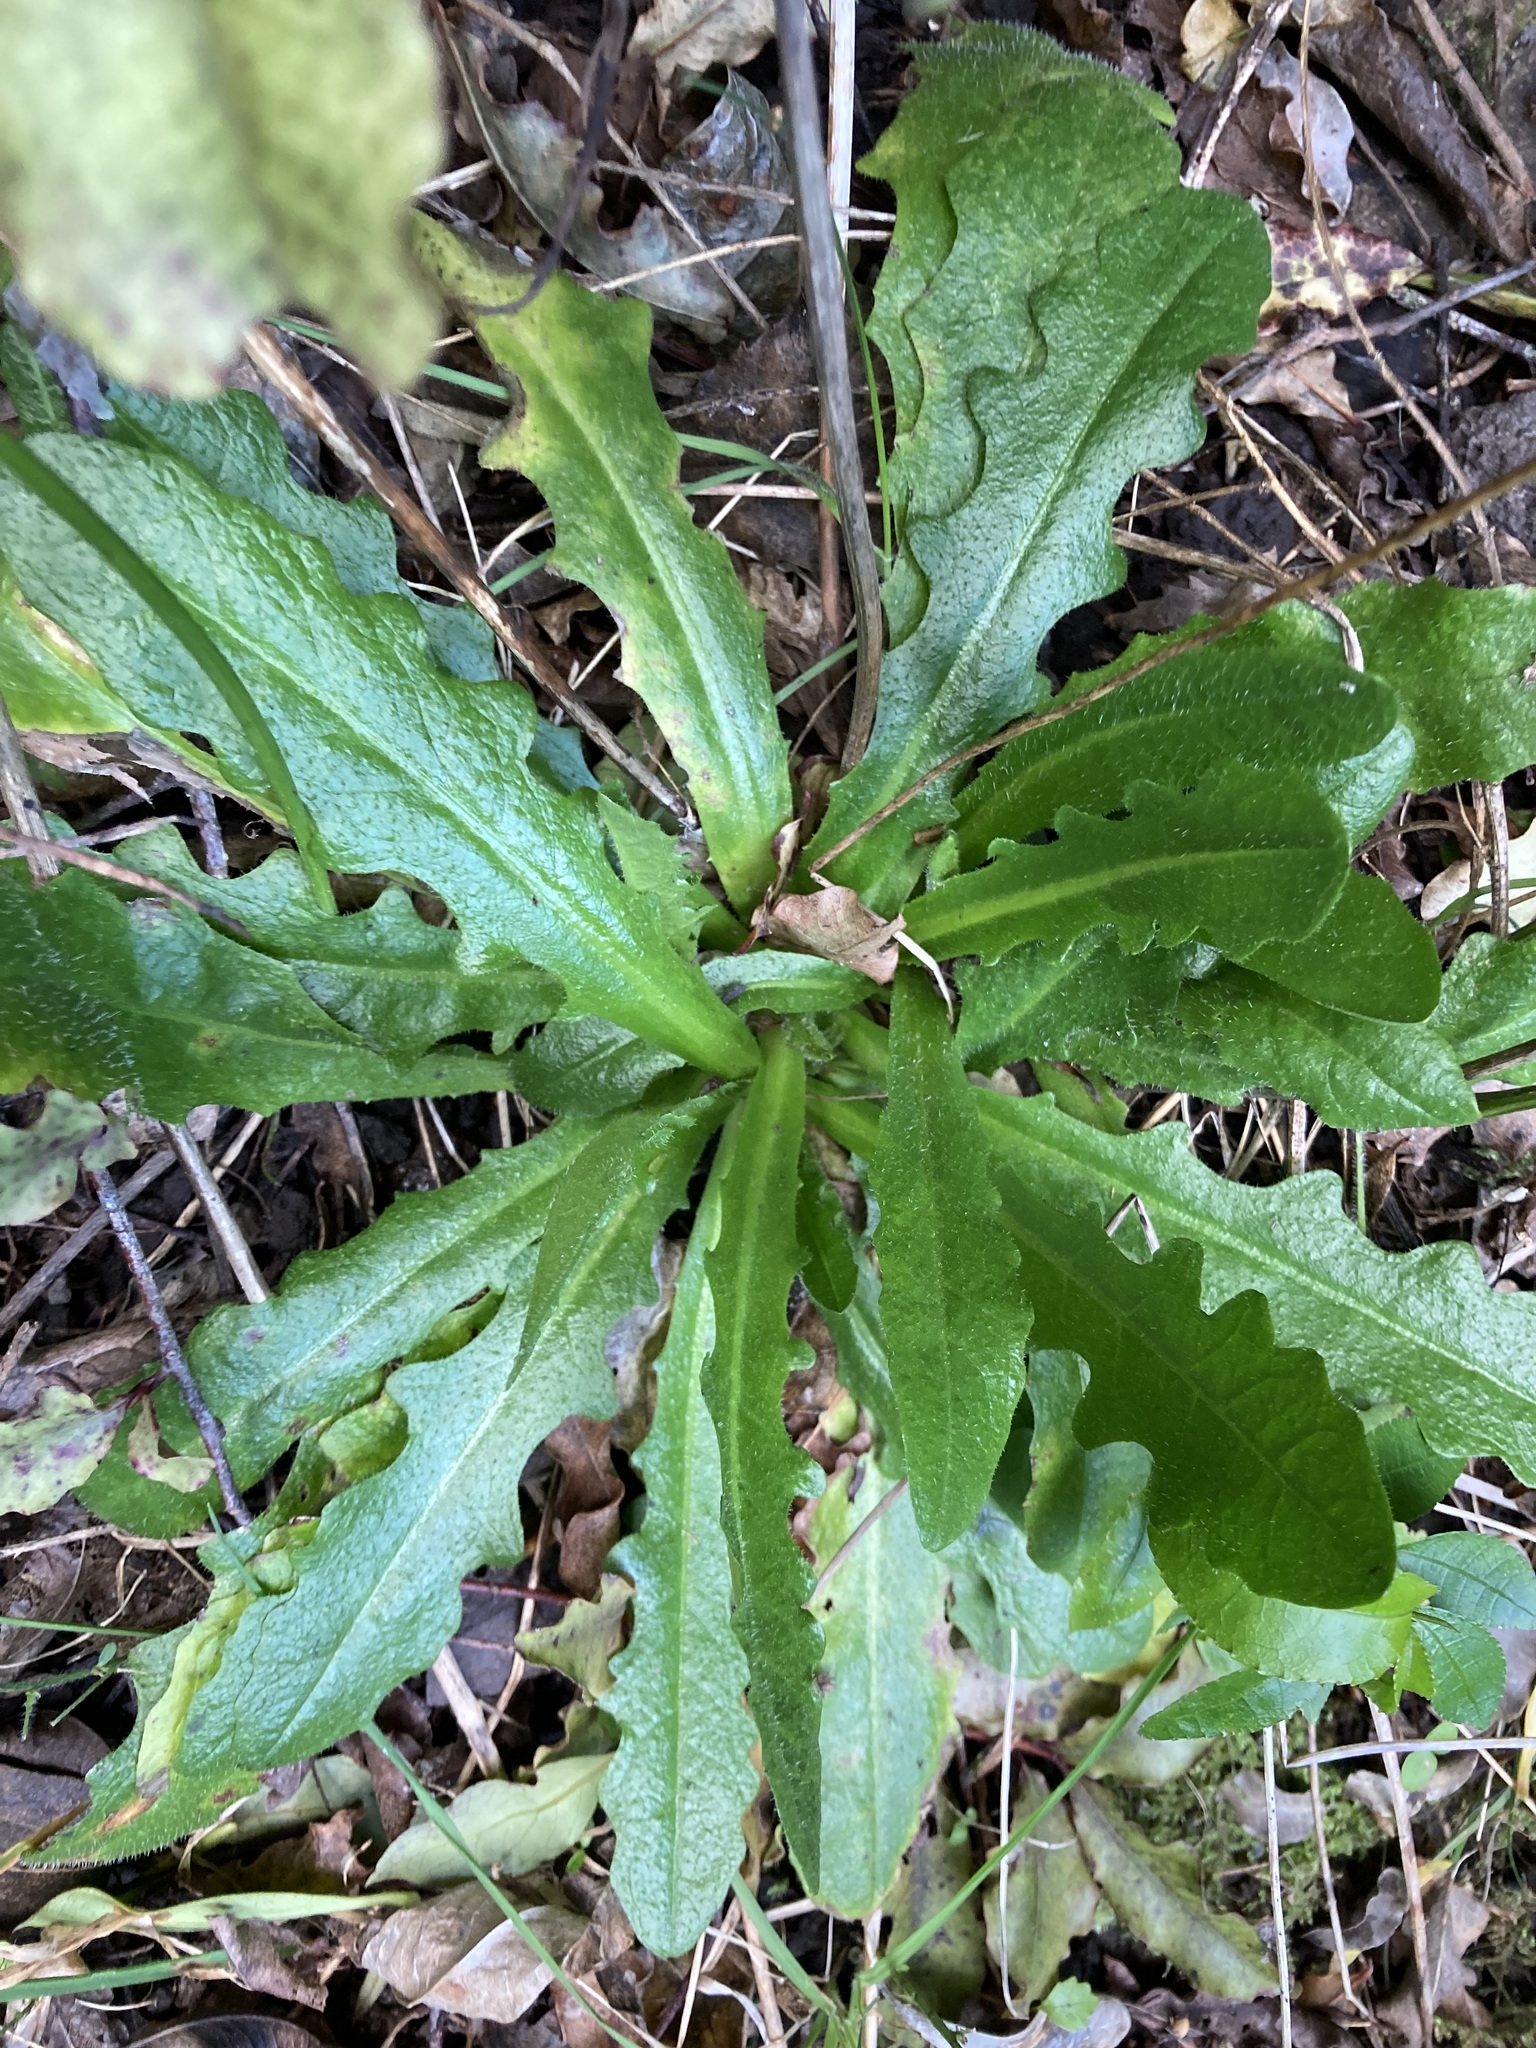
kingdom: Plantae
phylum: Tracheophyta
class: Magnoliopsida
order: Asterales
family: Asteraceae
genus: Hypochaeris
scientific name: Hypochaeris radicata
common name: Flatweed
